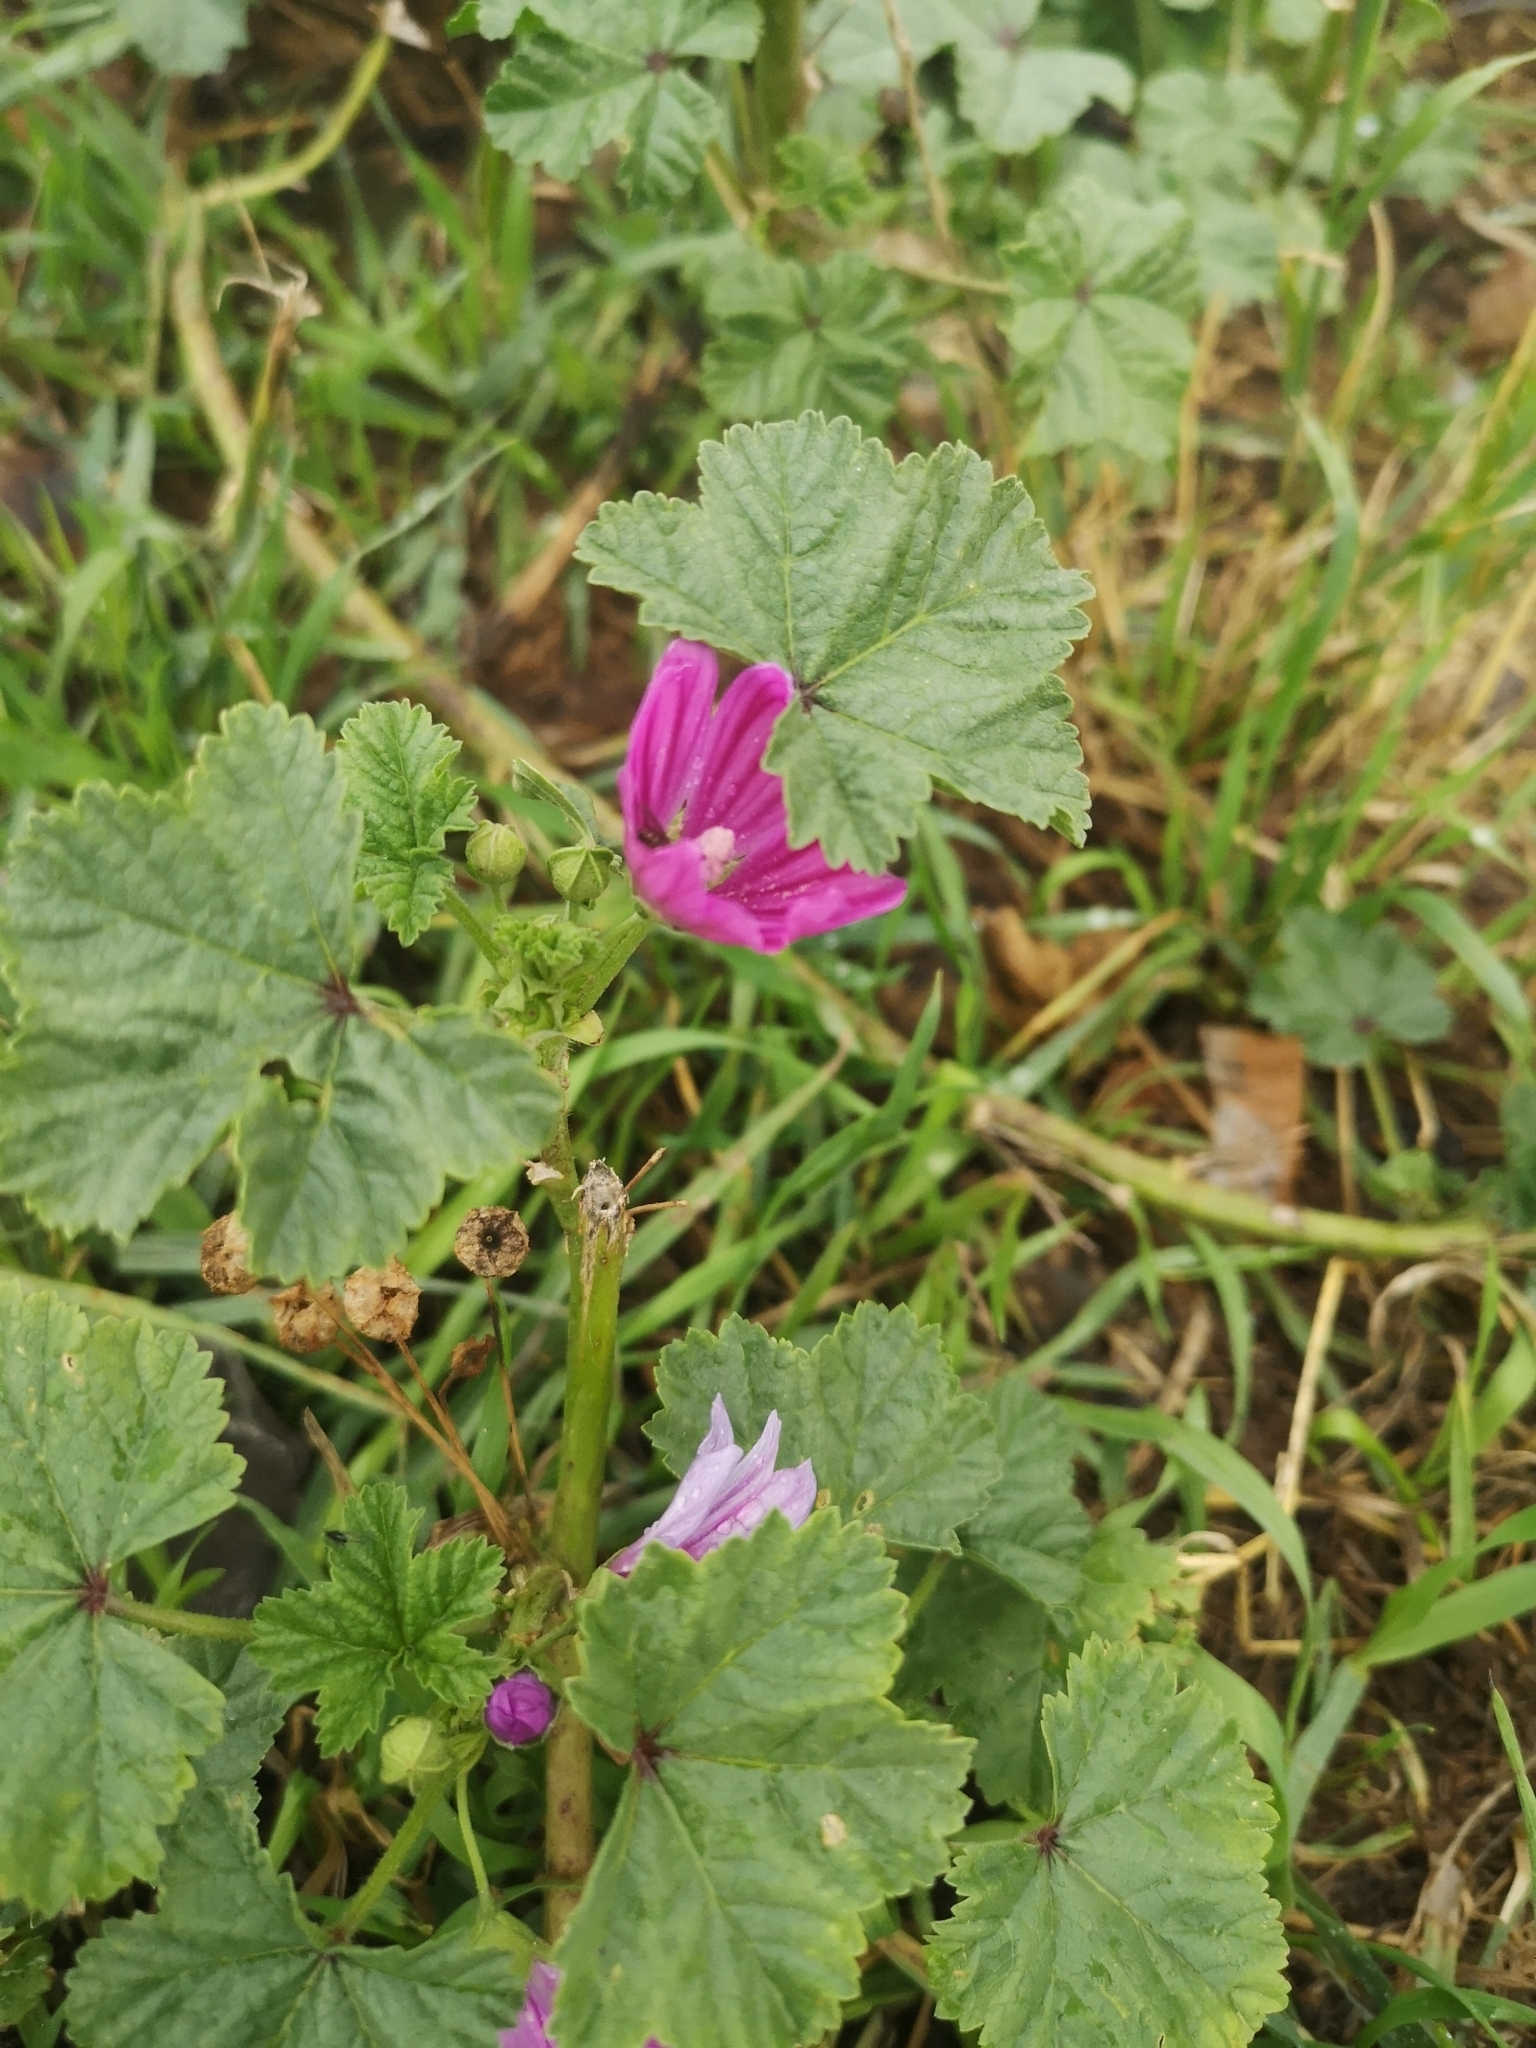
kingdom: Plantae
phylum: Tracheophyta
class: Magnoliopsida
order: Malvales
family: Malvaceae
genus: Malva
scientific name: Malva sylvestris
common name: Common mallow
